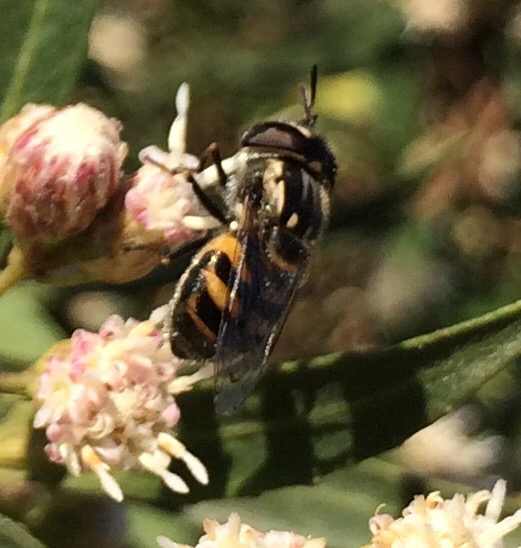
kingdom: Animalia
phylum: Arthropoda
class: Insecta
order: Diptera
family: Syrphidae
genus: Copestylum
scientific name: Copestylum marginatum
